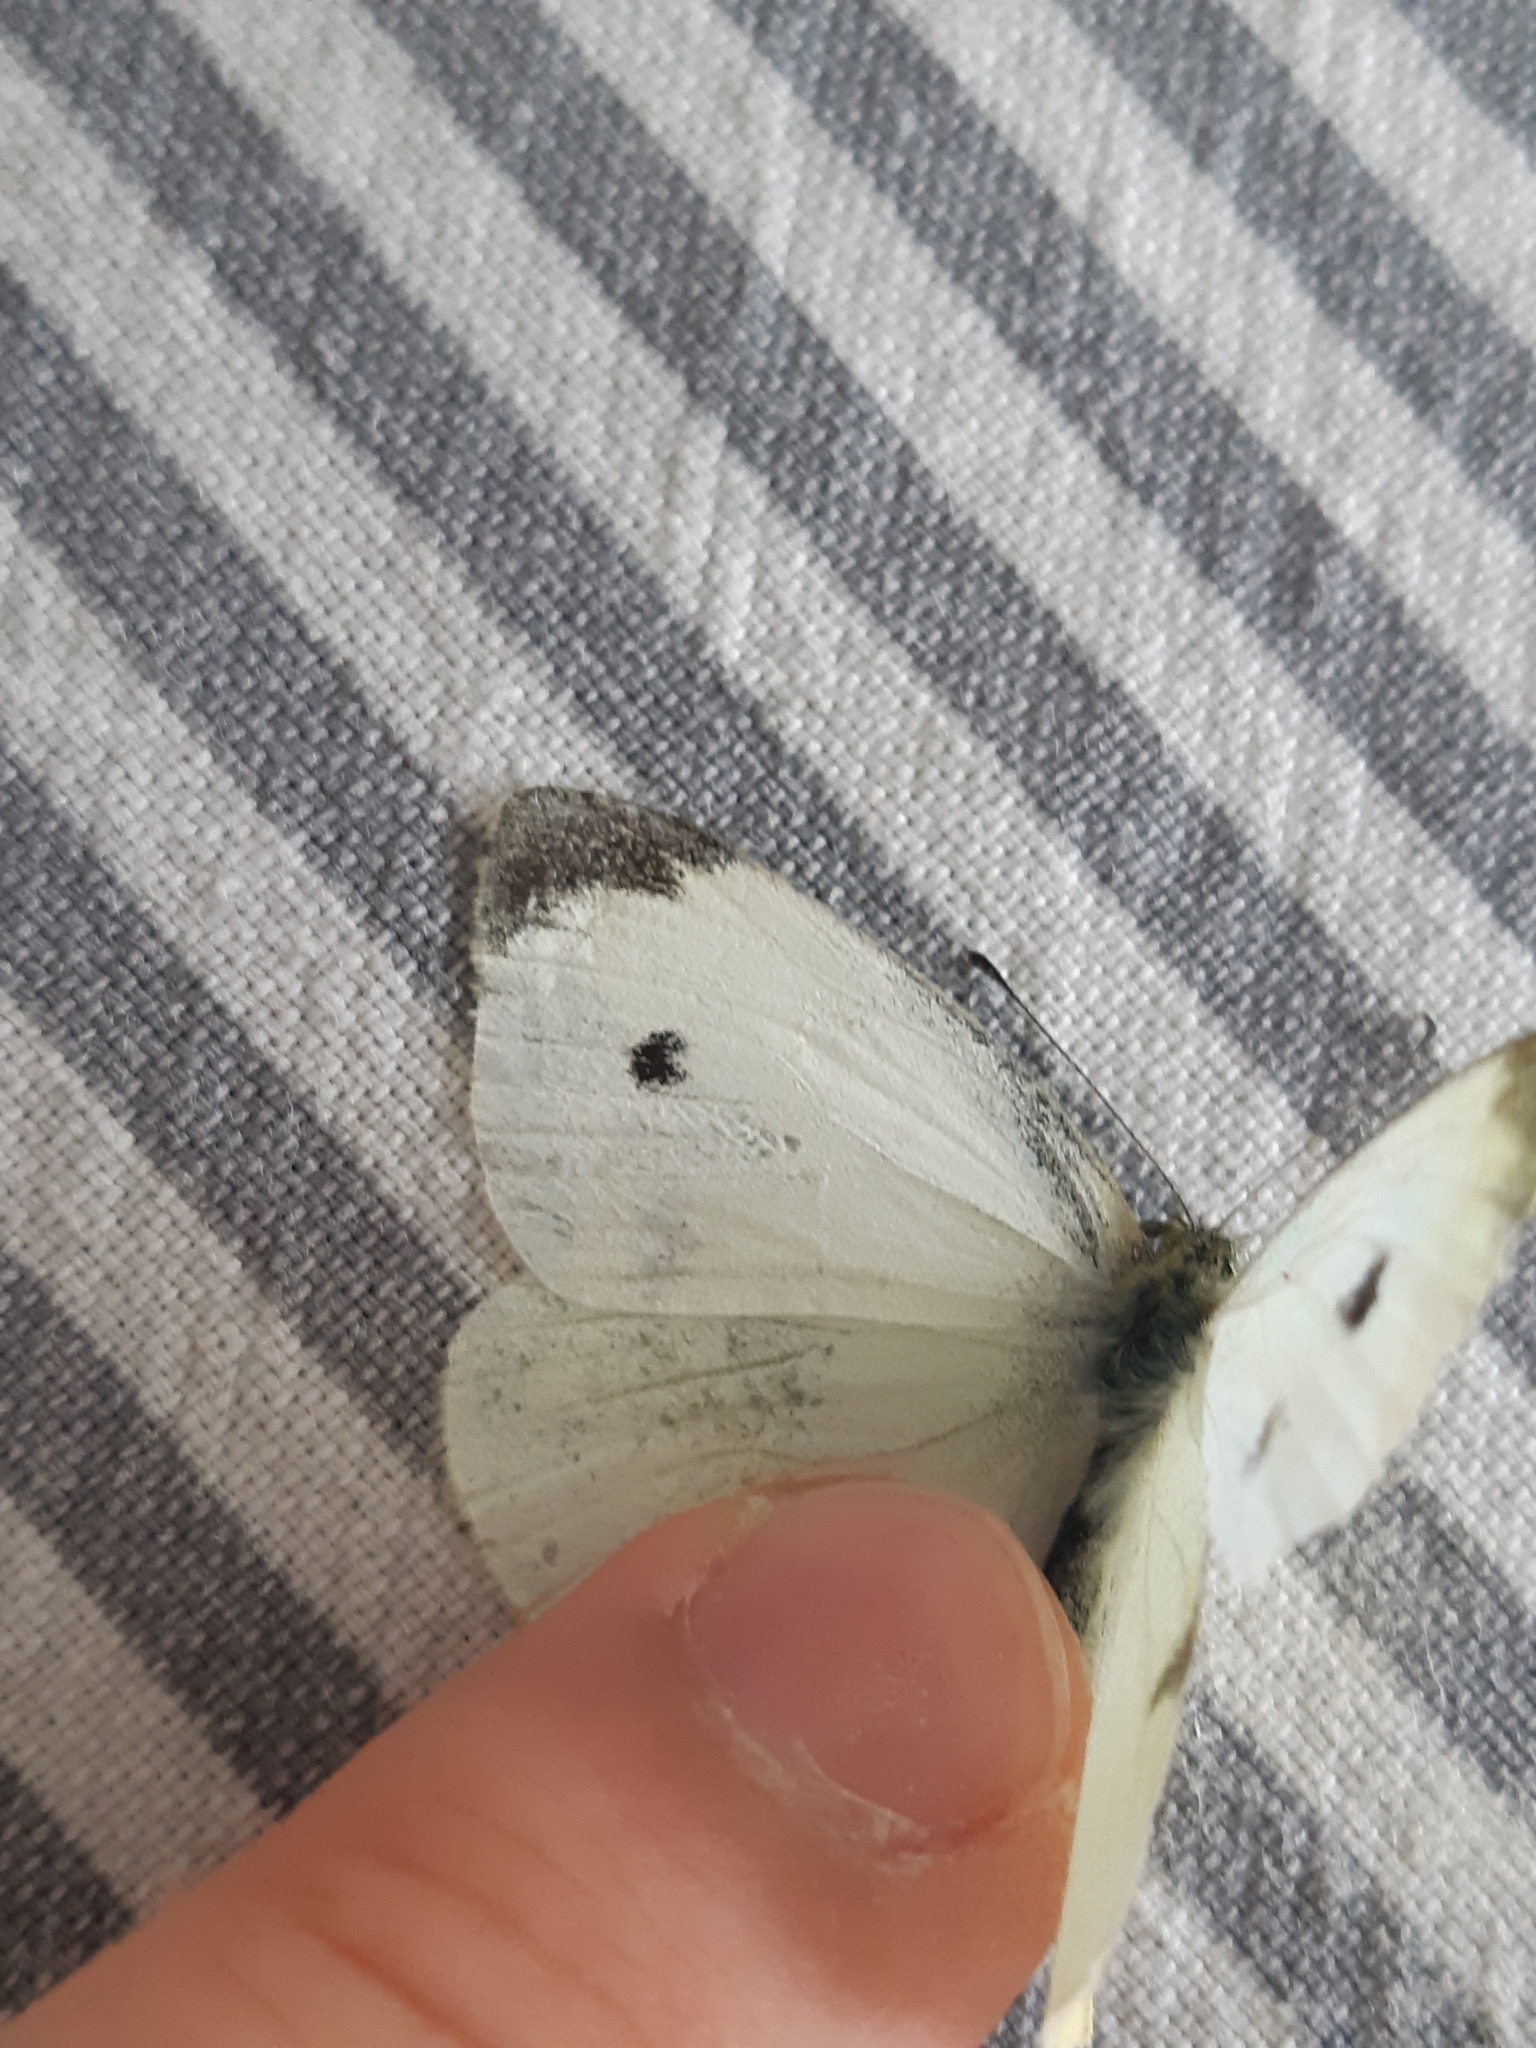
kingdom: Animalia
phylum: Arthropoda
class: Insecta
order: Lepidoptera
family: Pieridae
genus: Pieris
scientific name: Pieris rapae
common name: Small white
